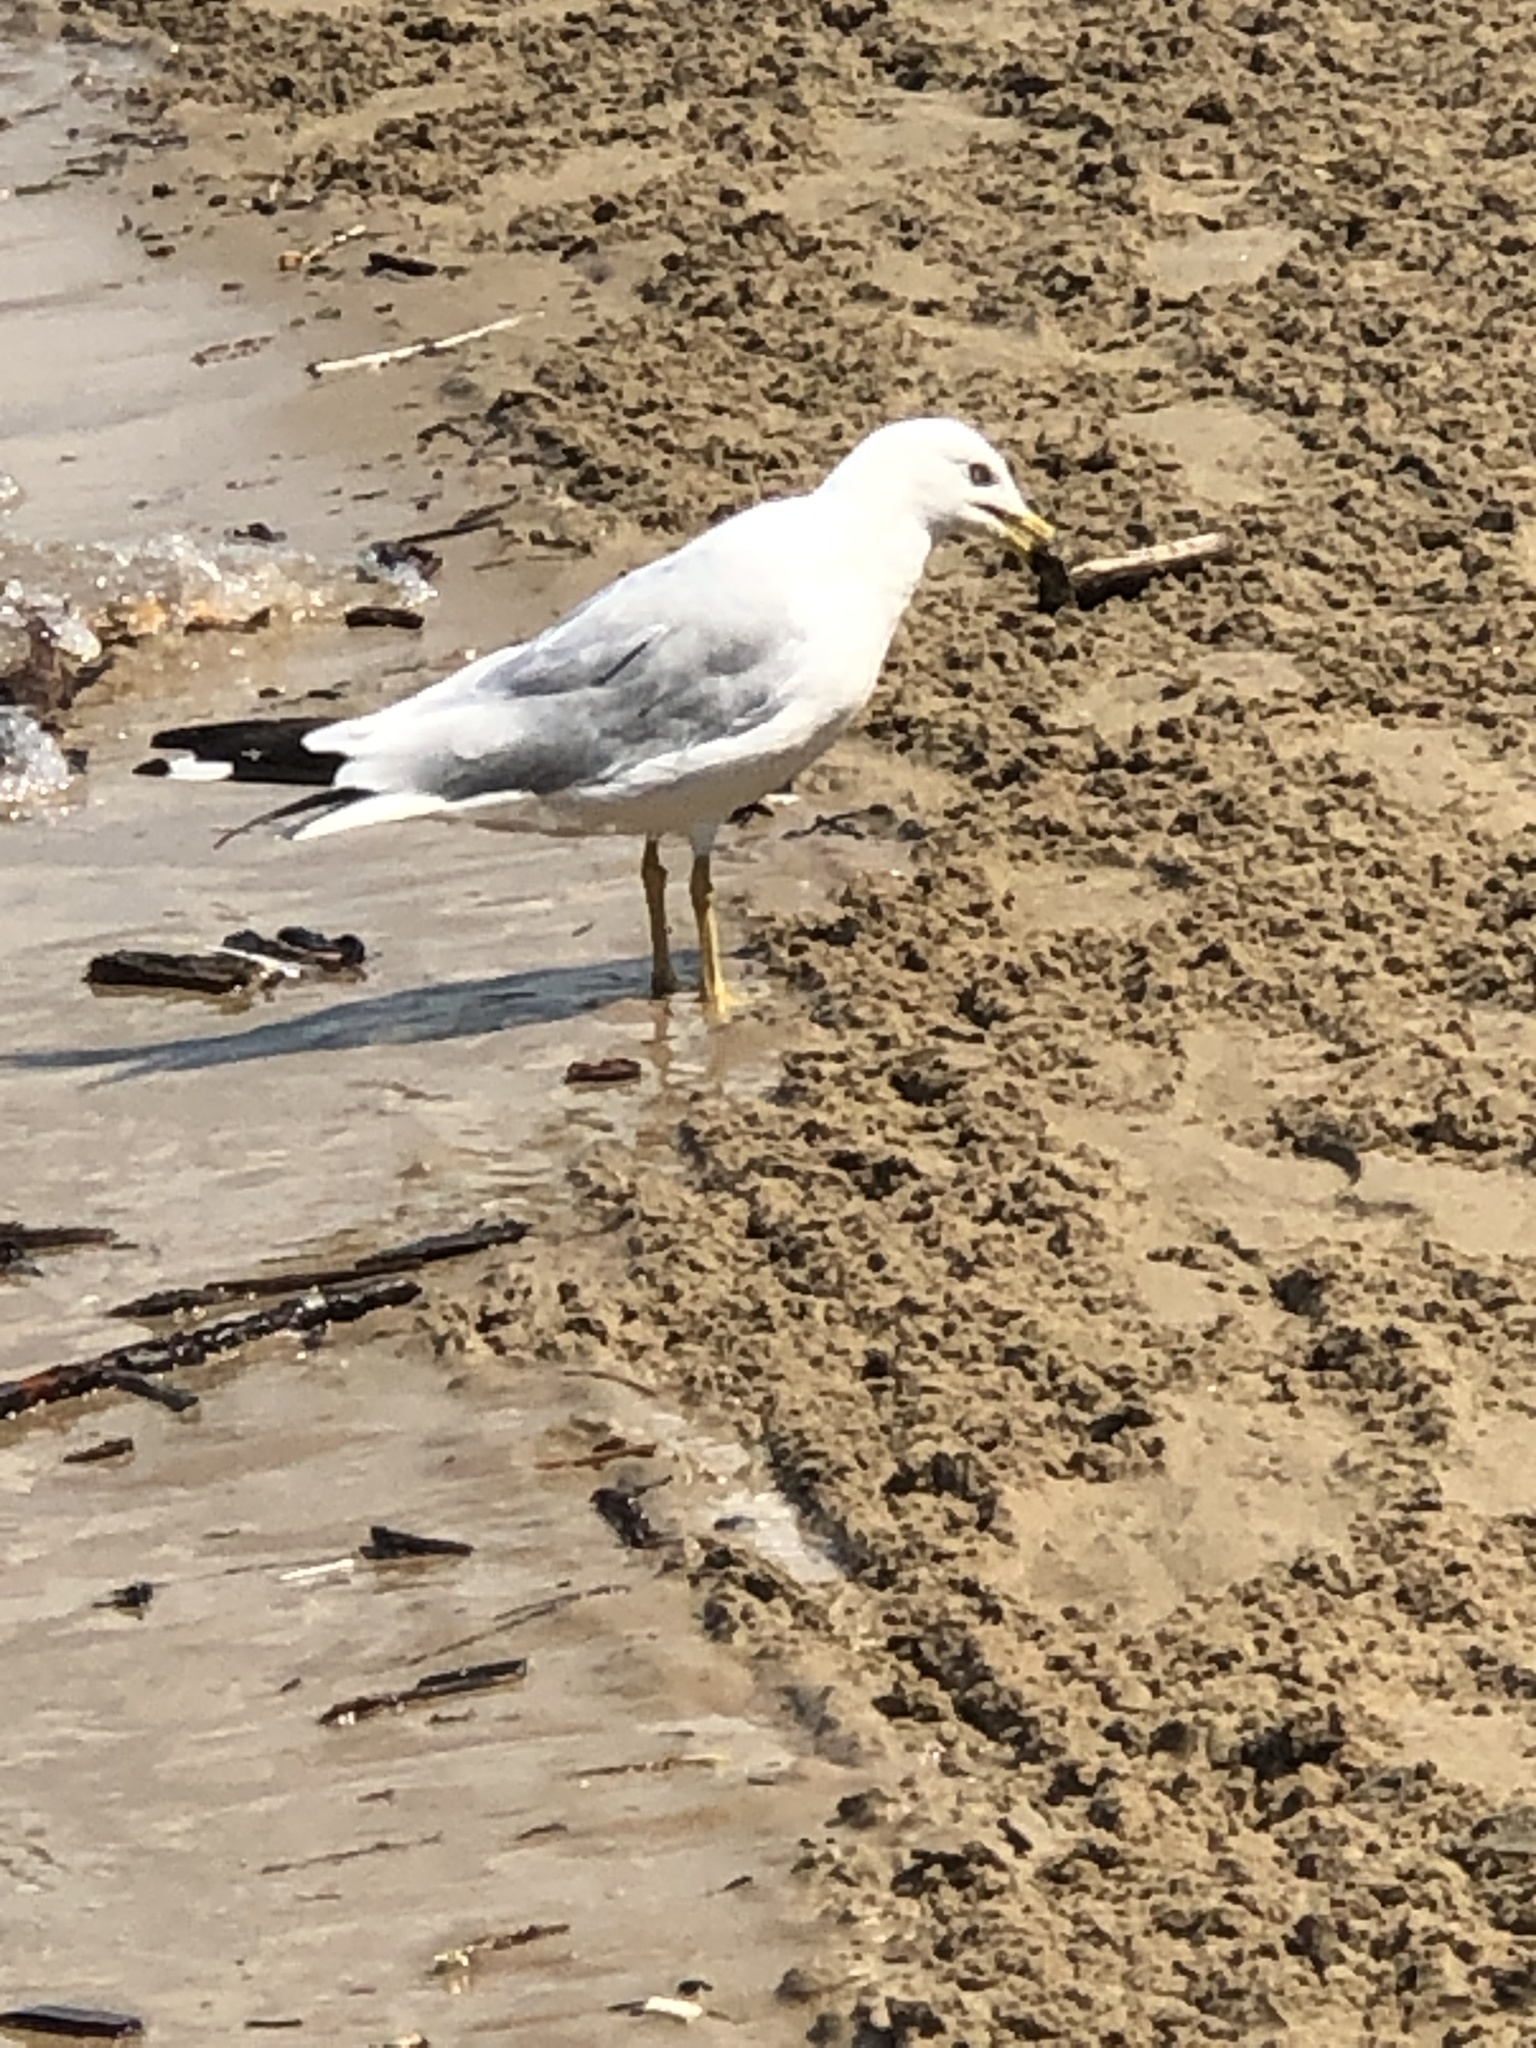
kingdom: Animalia
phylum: Chordata
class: Aves
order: Charadriiformes
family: Laridae
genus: Larus
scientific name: Larus delawarensis
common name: Ring-billed gull
